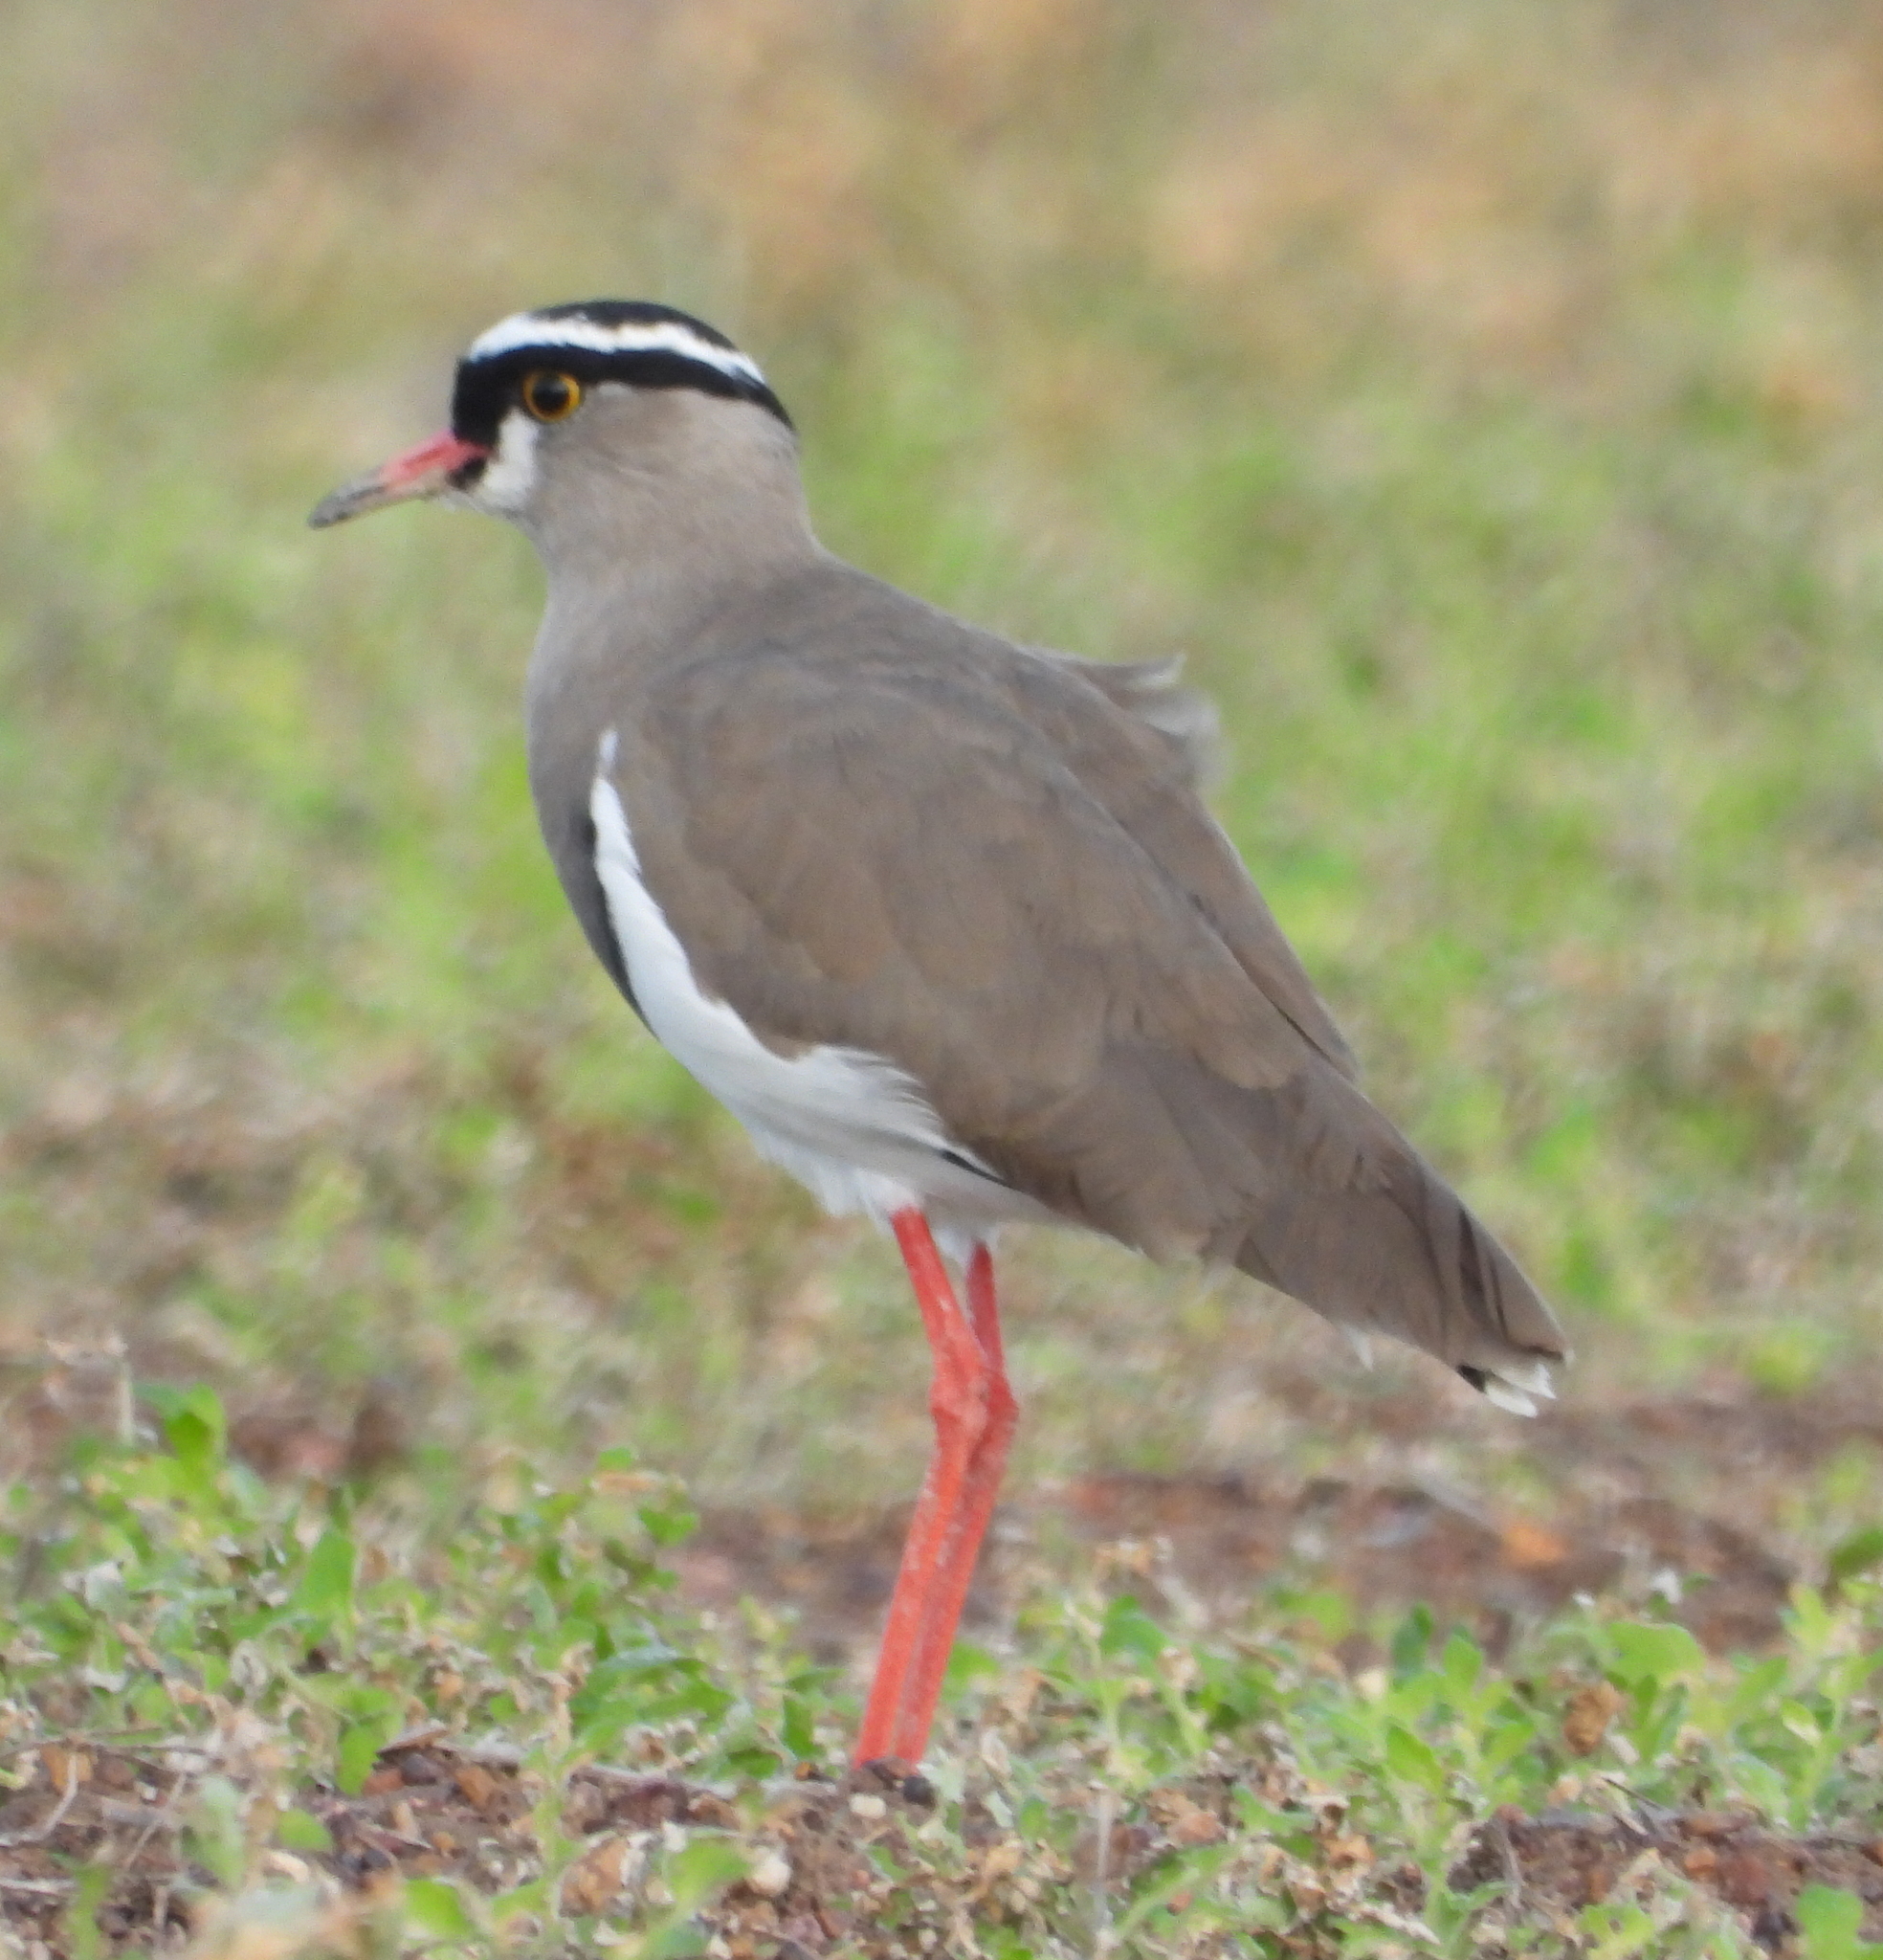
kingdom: Animalia
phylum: Chordata
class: Aves
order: Charadriiformes
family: Charadriidae
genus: Vanellus
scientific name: Vanellus coronatus
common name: Crowned lapwing
